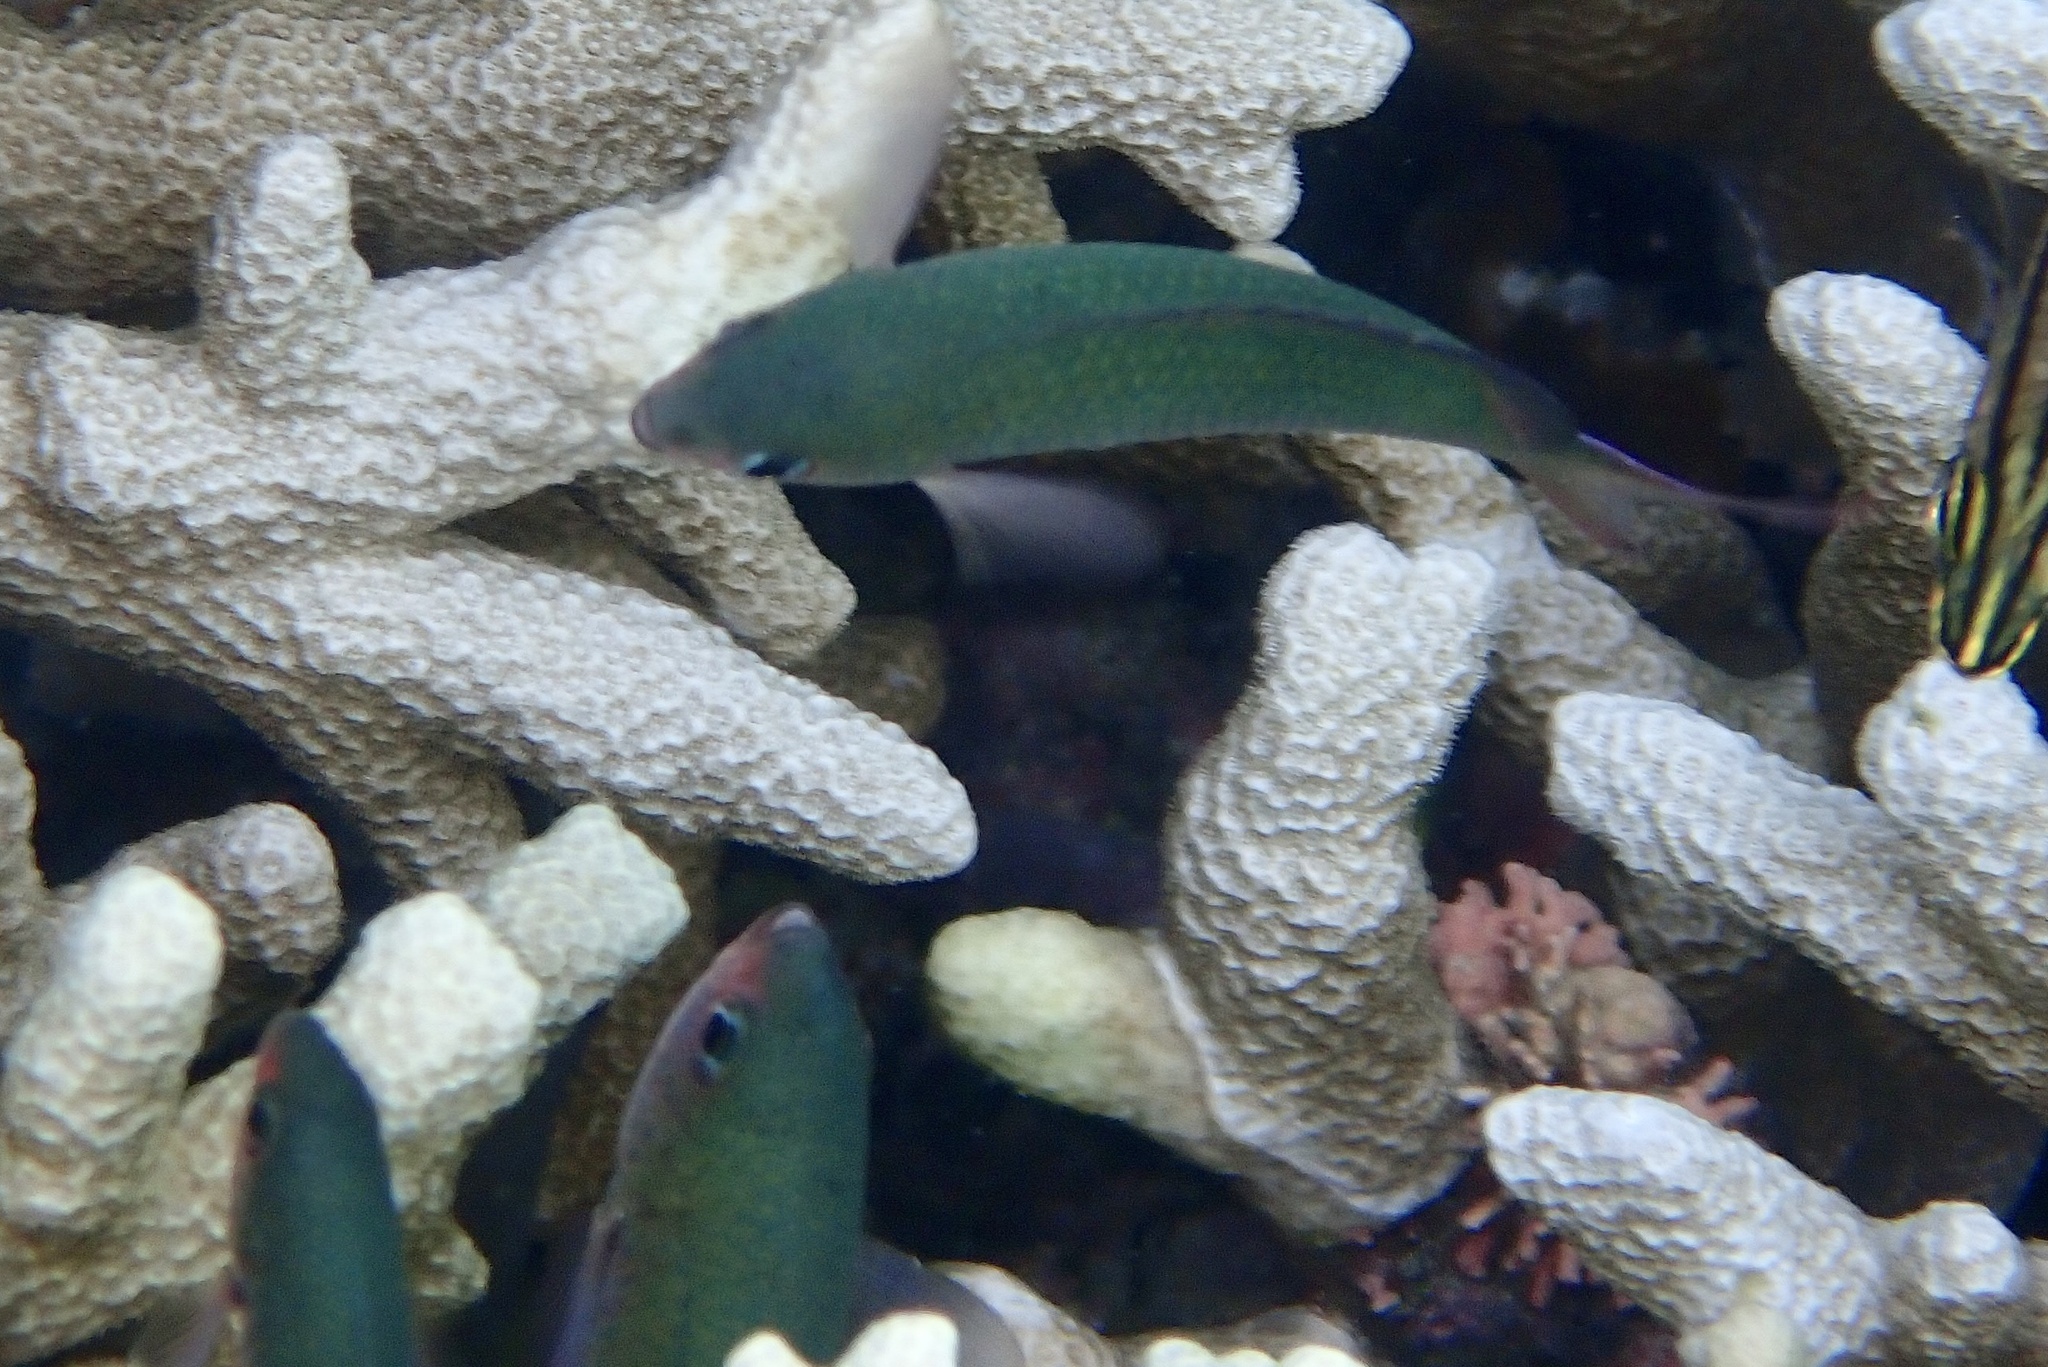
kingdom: Animalia
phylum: Chordata
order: Perciformes
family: Pomacentridae
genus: Lepidozygus
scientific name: Lepidozygus tapeinosoma
